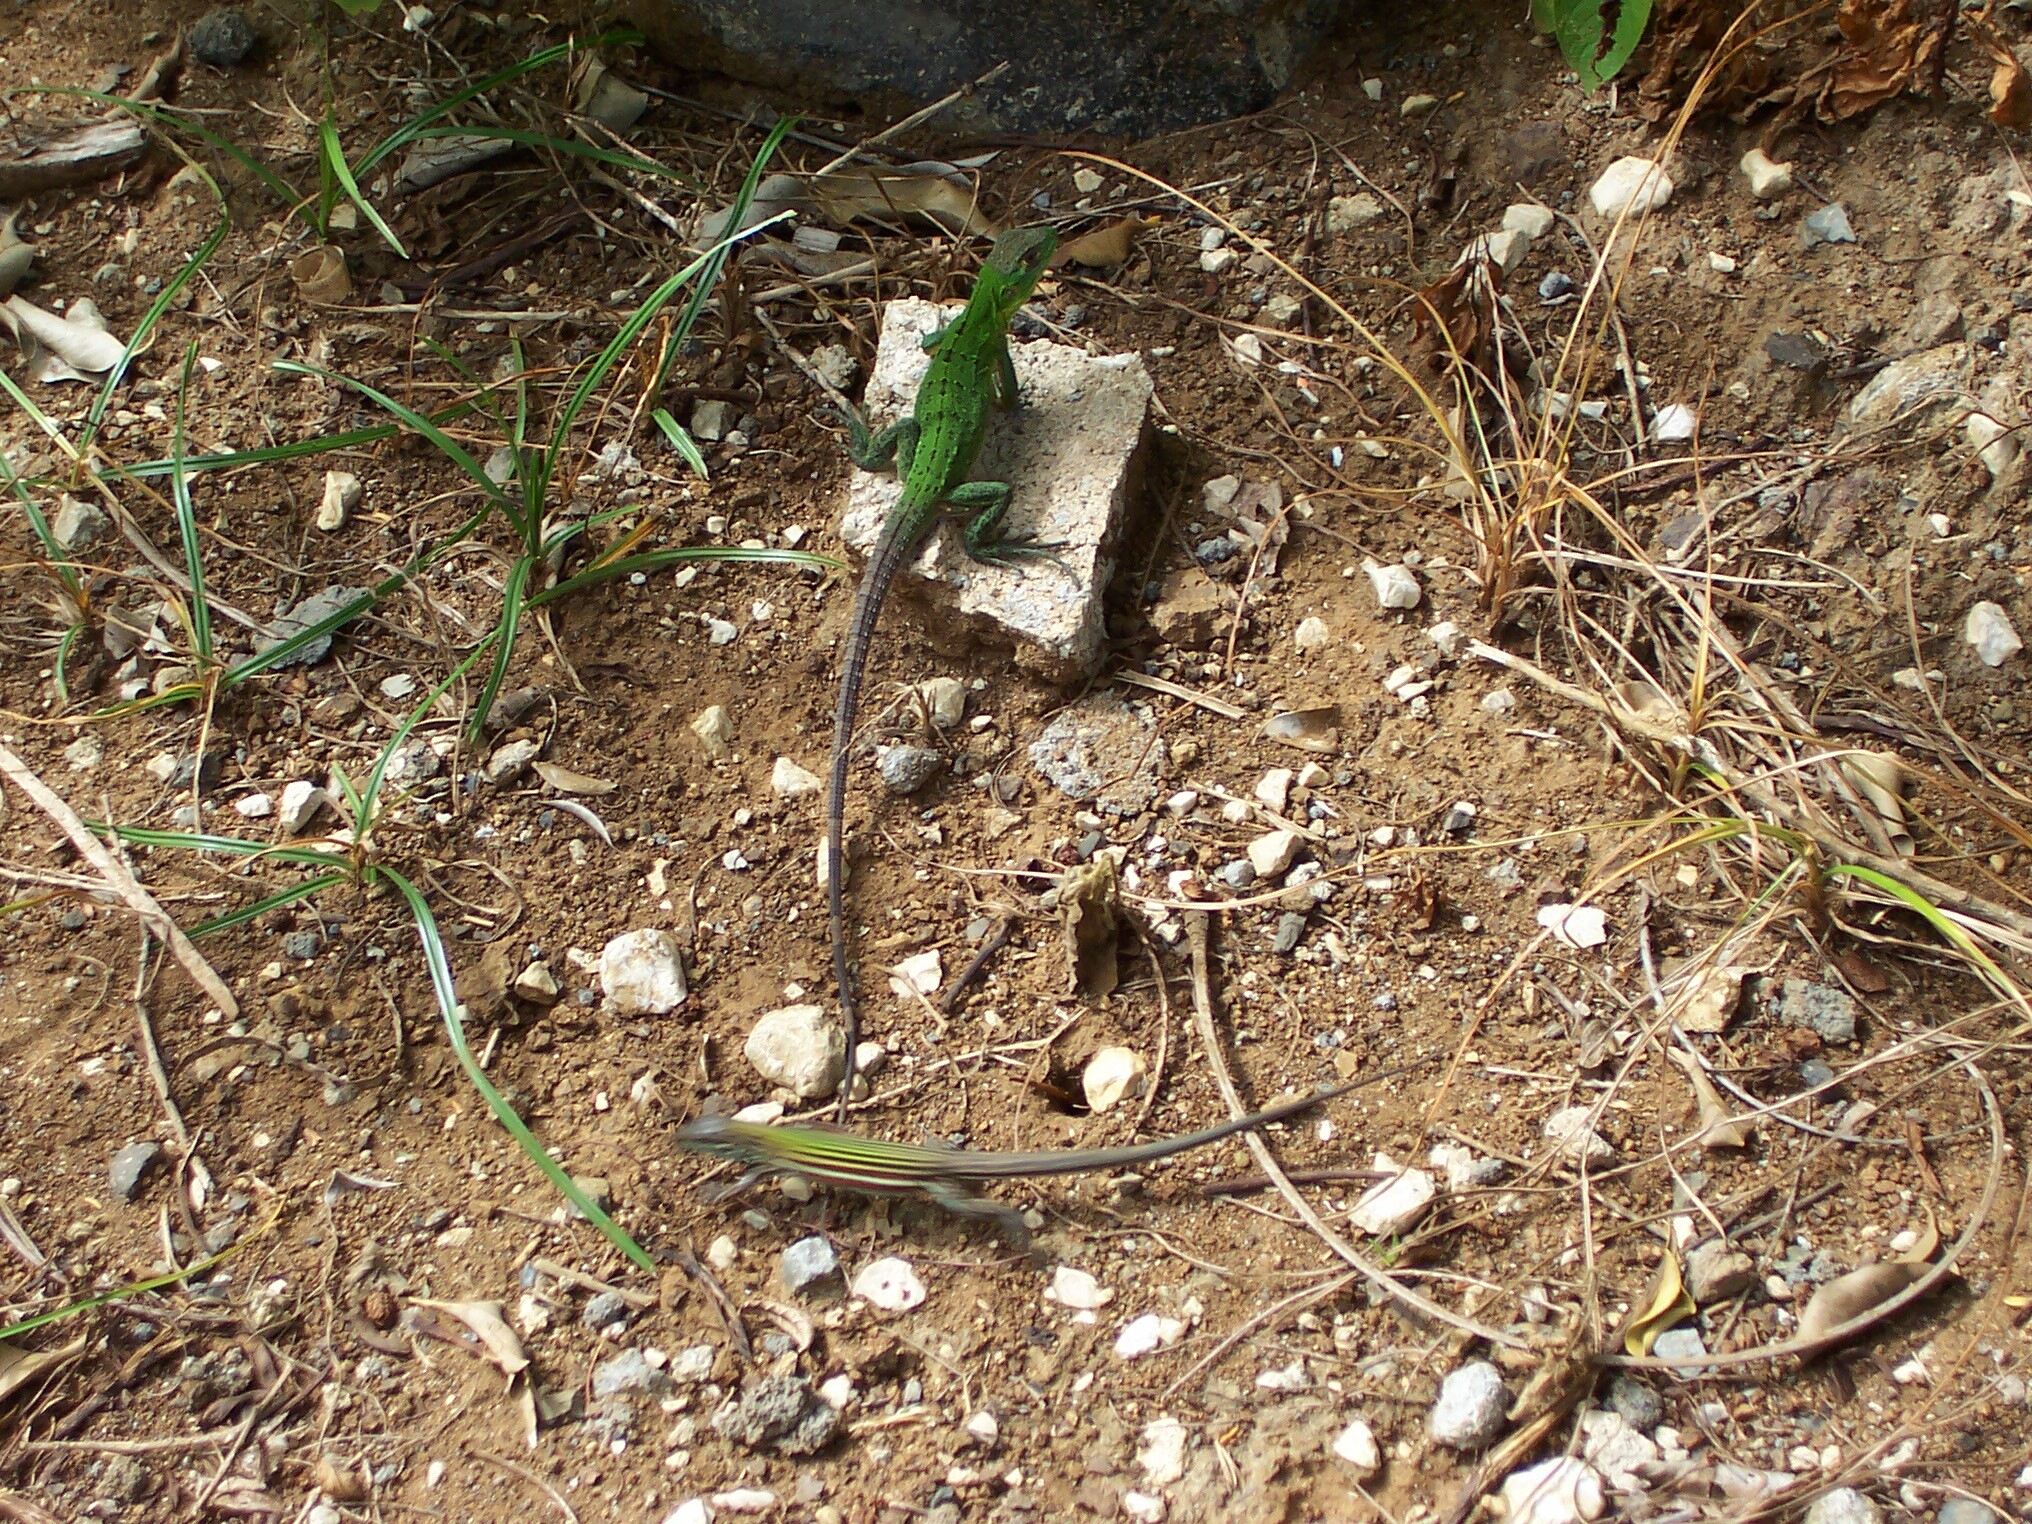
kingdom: Animalia
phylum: Chordata
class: Squamata
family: Iguanidae
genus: Ctenosaura
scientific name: Ctenosaura similis
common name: Black spiny-tailed iguana
